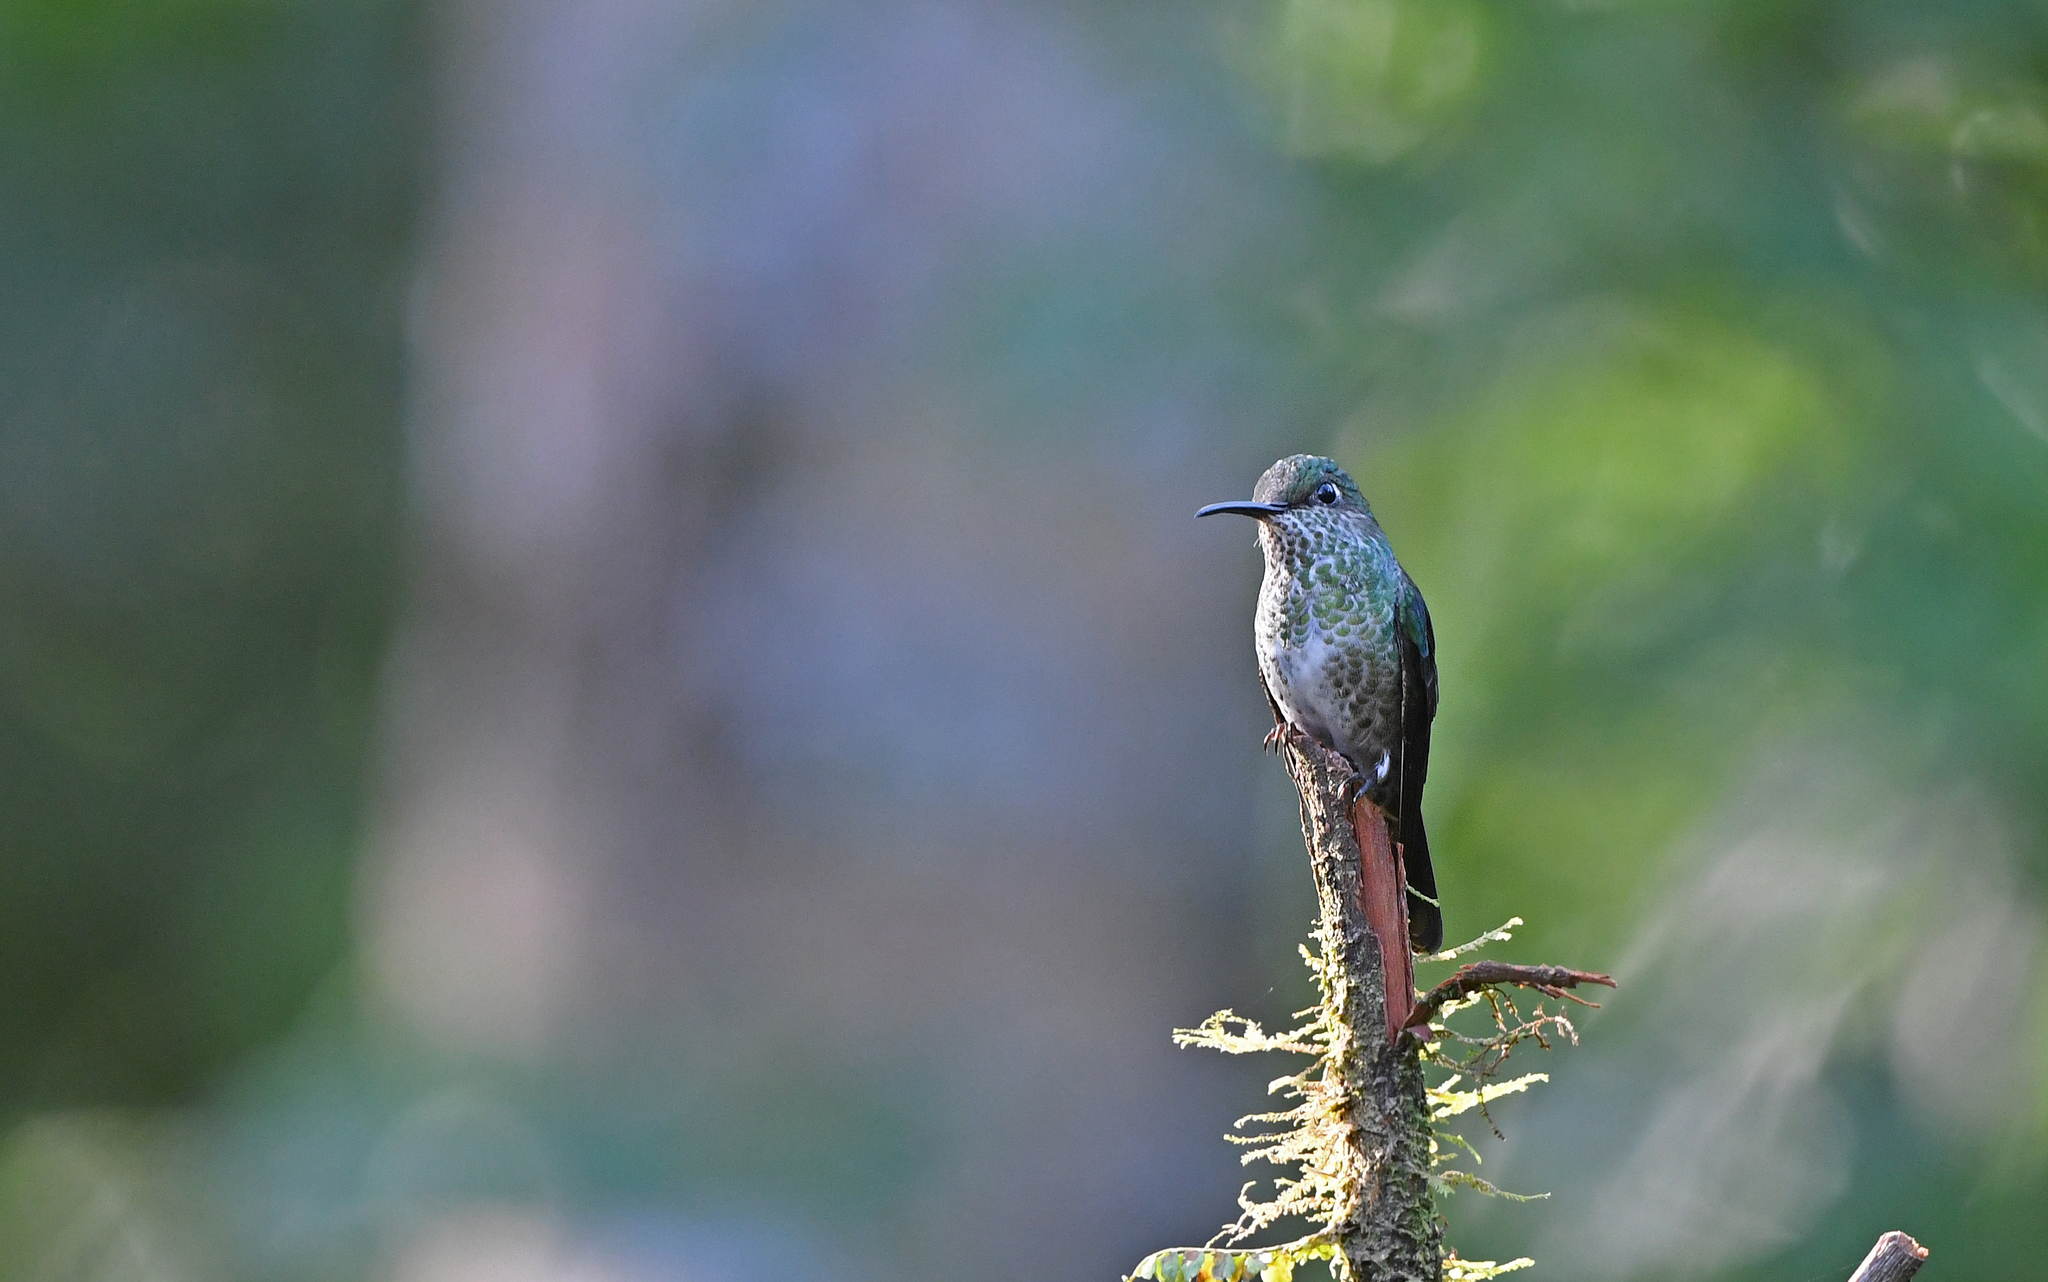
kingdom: Animalia
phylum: Chordata
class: Aves
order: Apodiformes
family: Trochilidae
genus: Taphrospilus
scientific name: Taphrospilus hypostictus
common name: Many-spotted hummingbird
